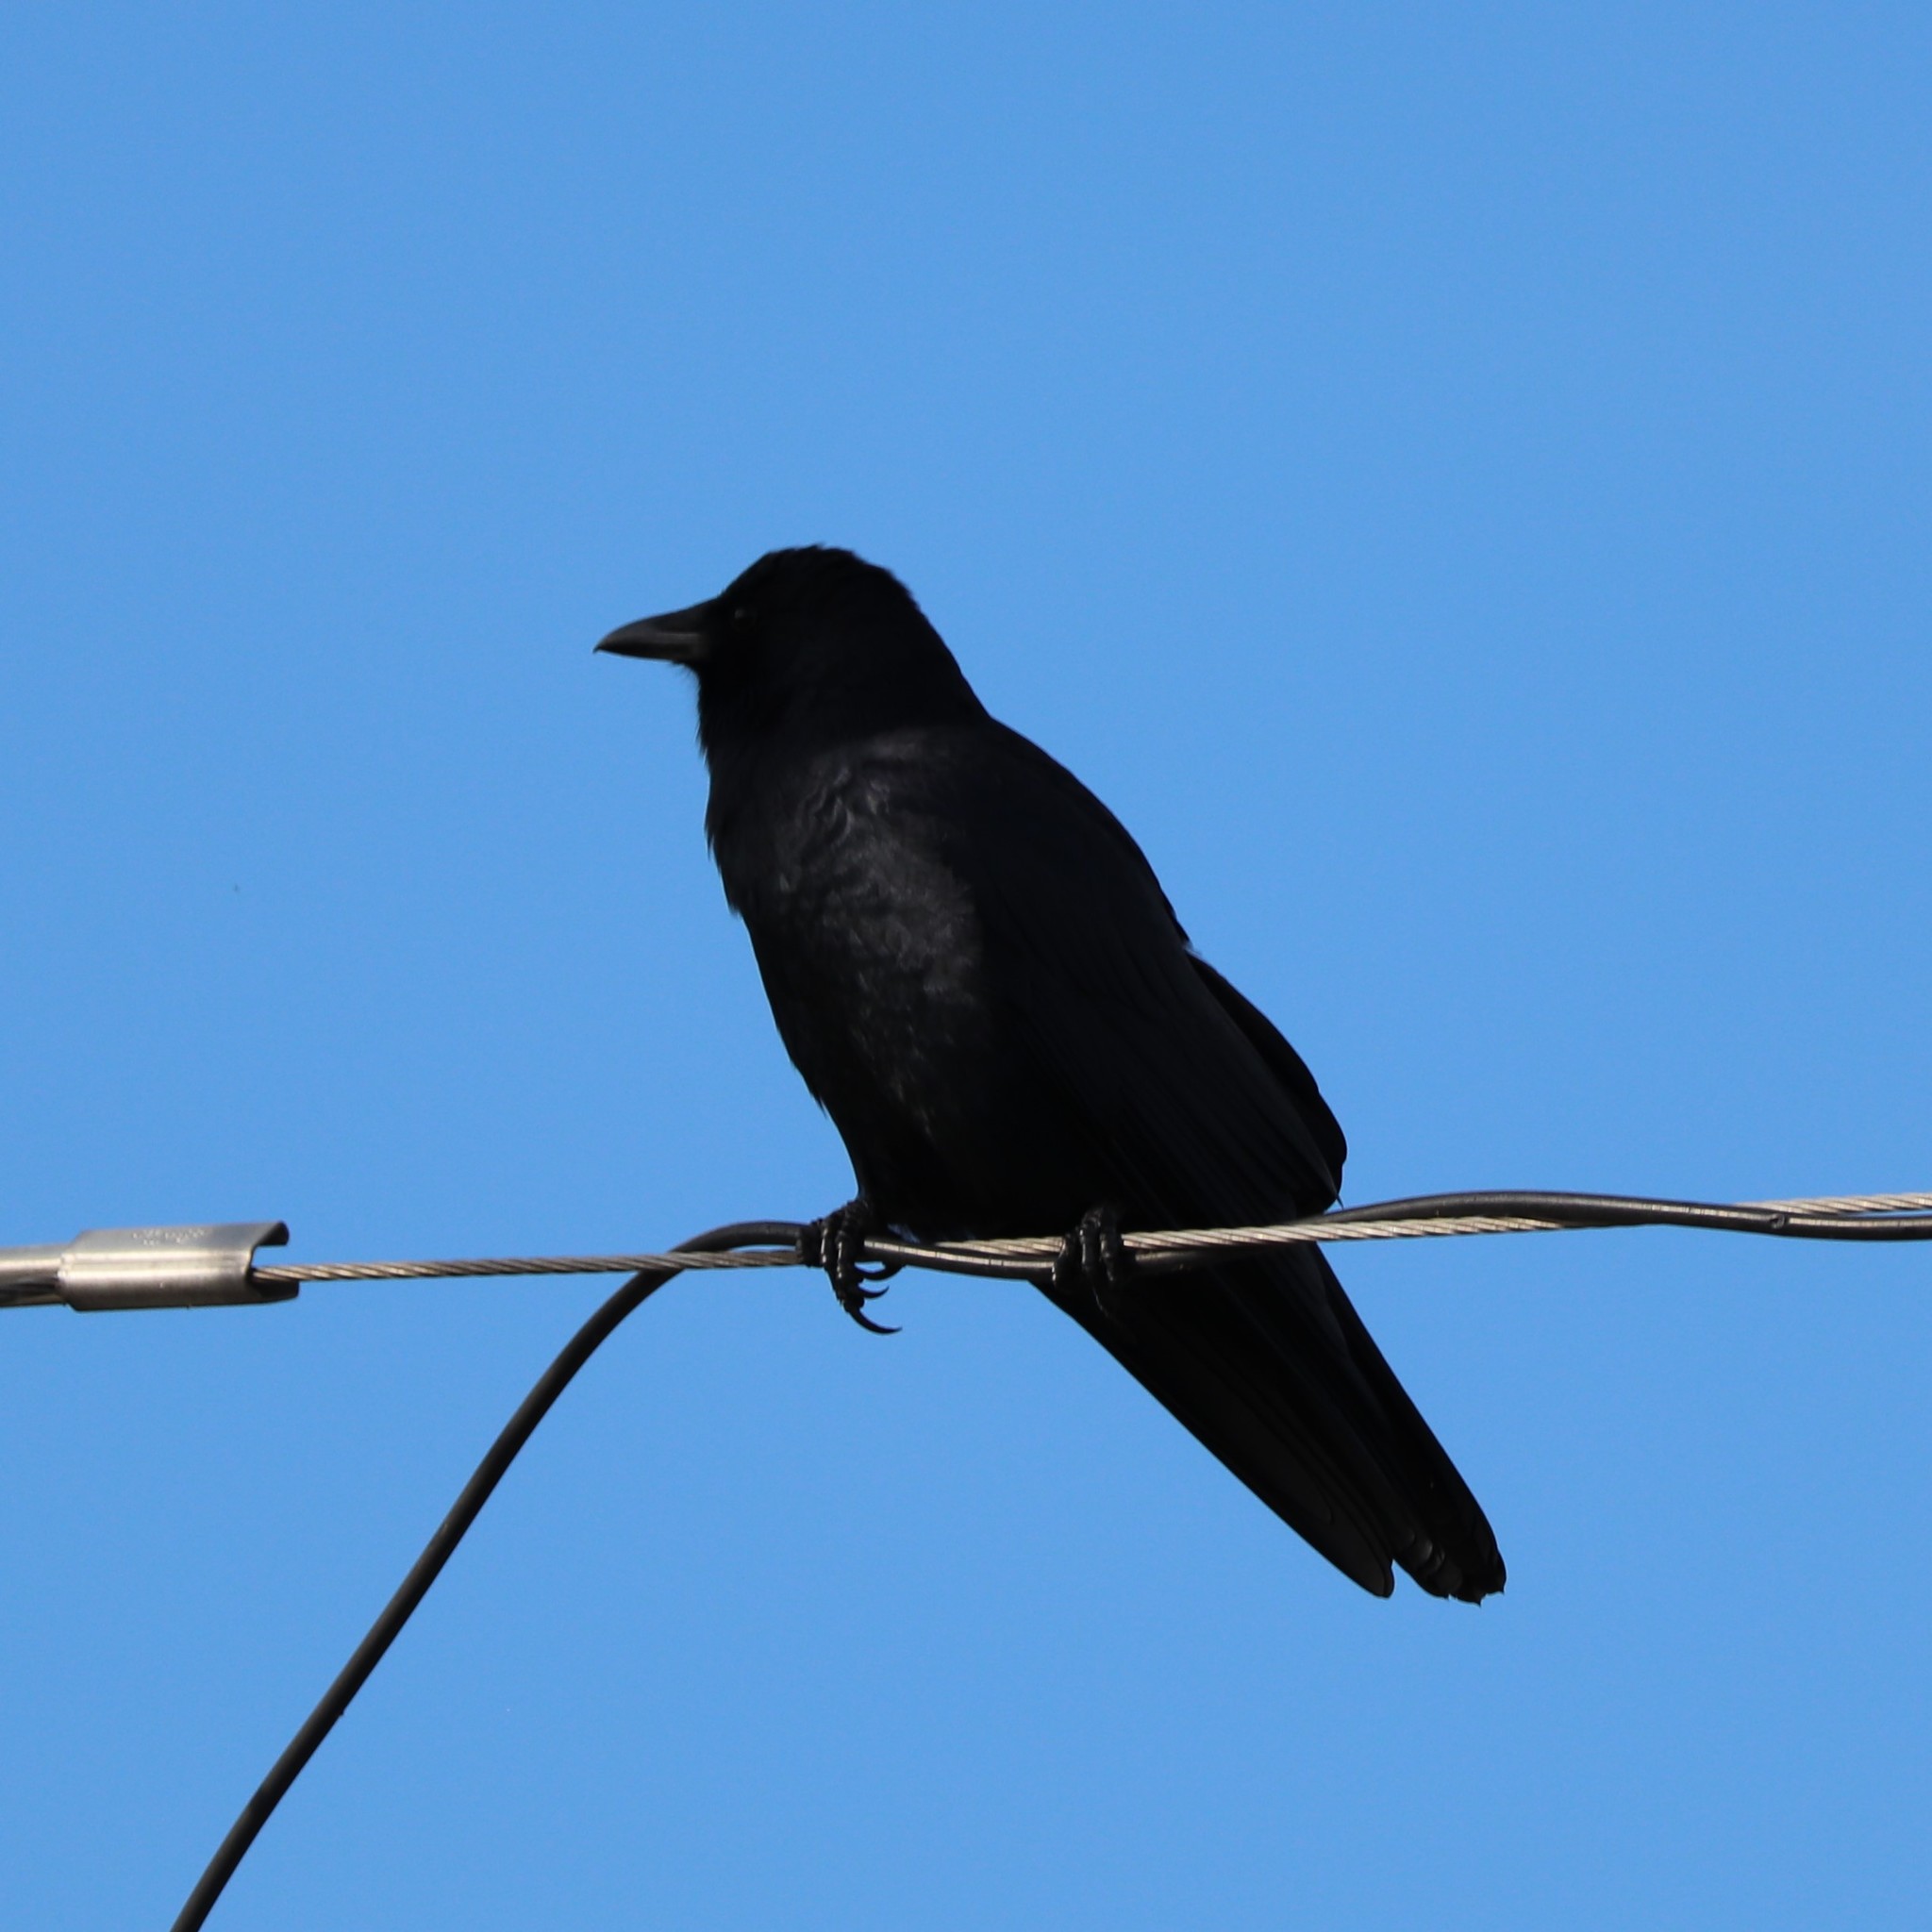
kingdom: Animalia
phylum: Chordata
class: Aves
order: Passeriformes
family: Corvidae
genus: Corvus
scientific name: Corvus ossifragus
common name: Fish crow
